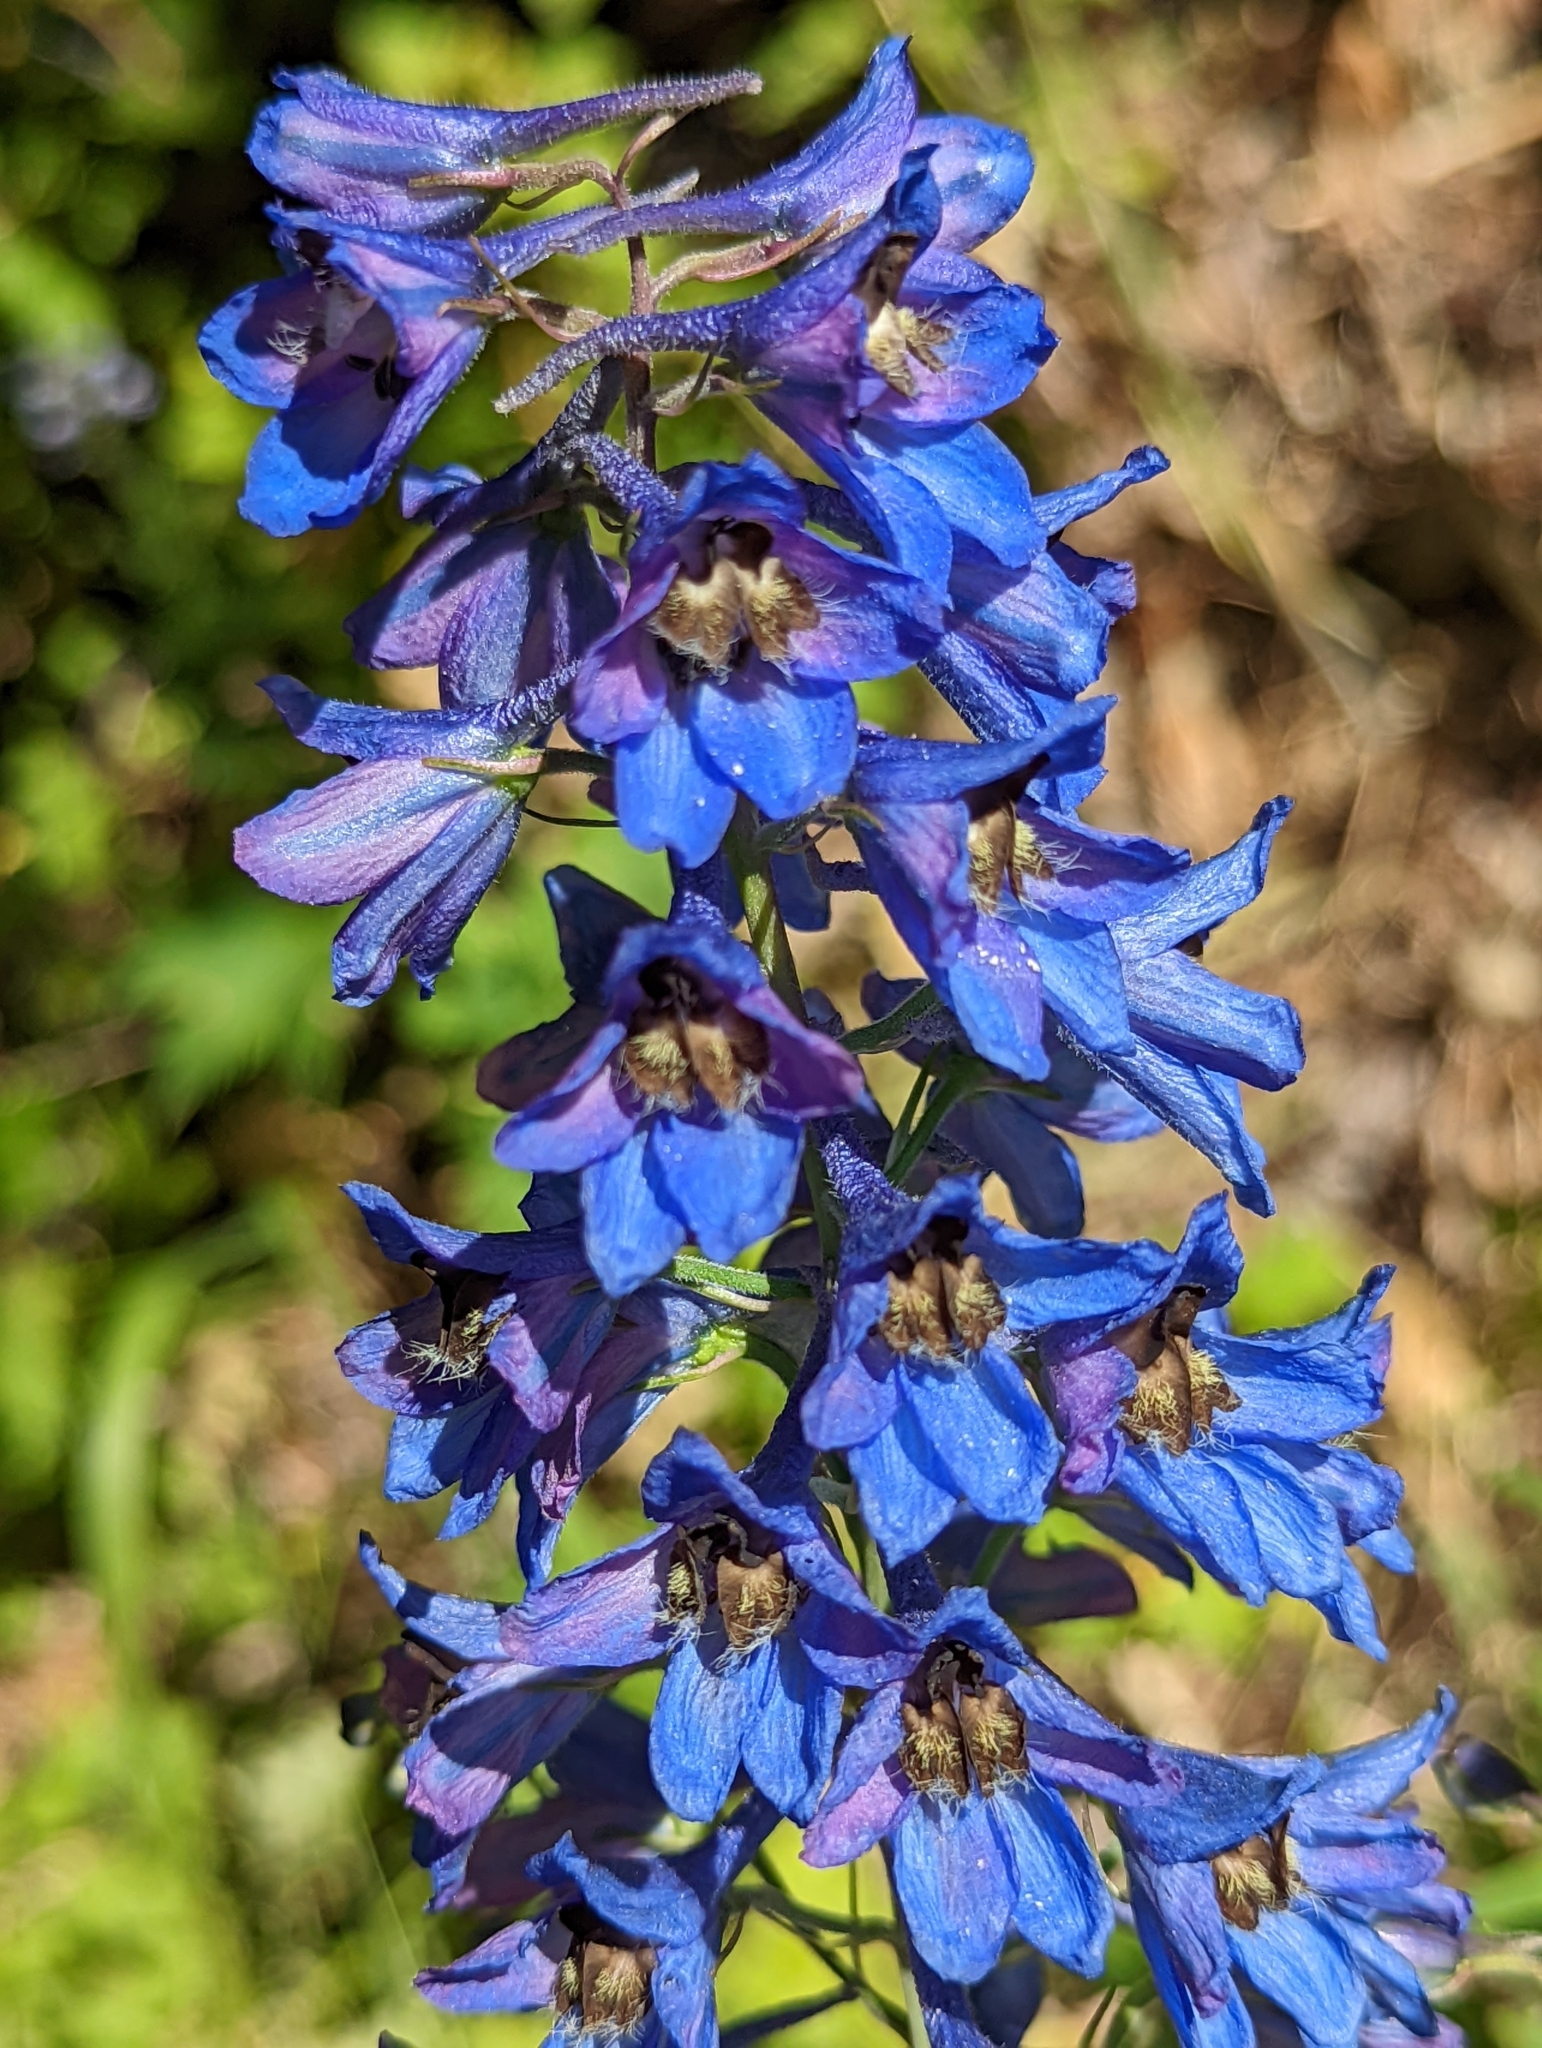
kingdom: Plantae
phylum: Tracheophyta
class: Magnoliopsida
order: Ranunculales
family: Ranunculaceae
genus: Delphinium
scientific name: Delphinium cultorum
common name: Garden delphinium
